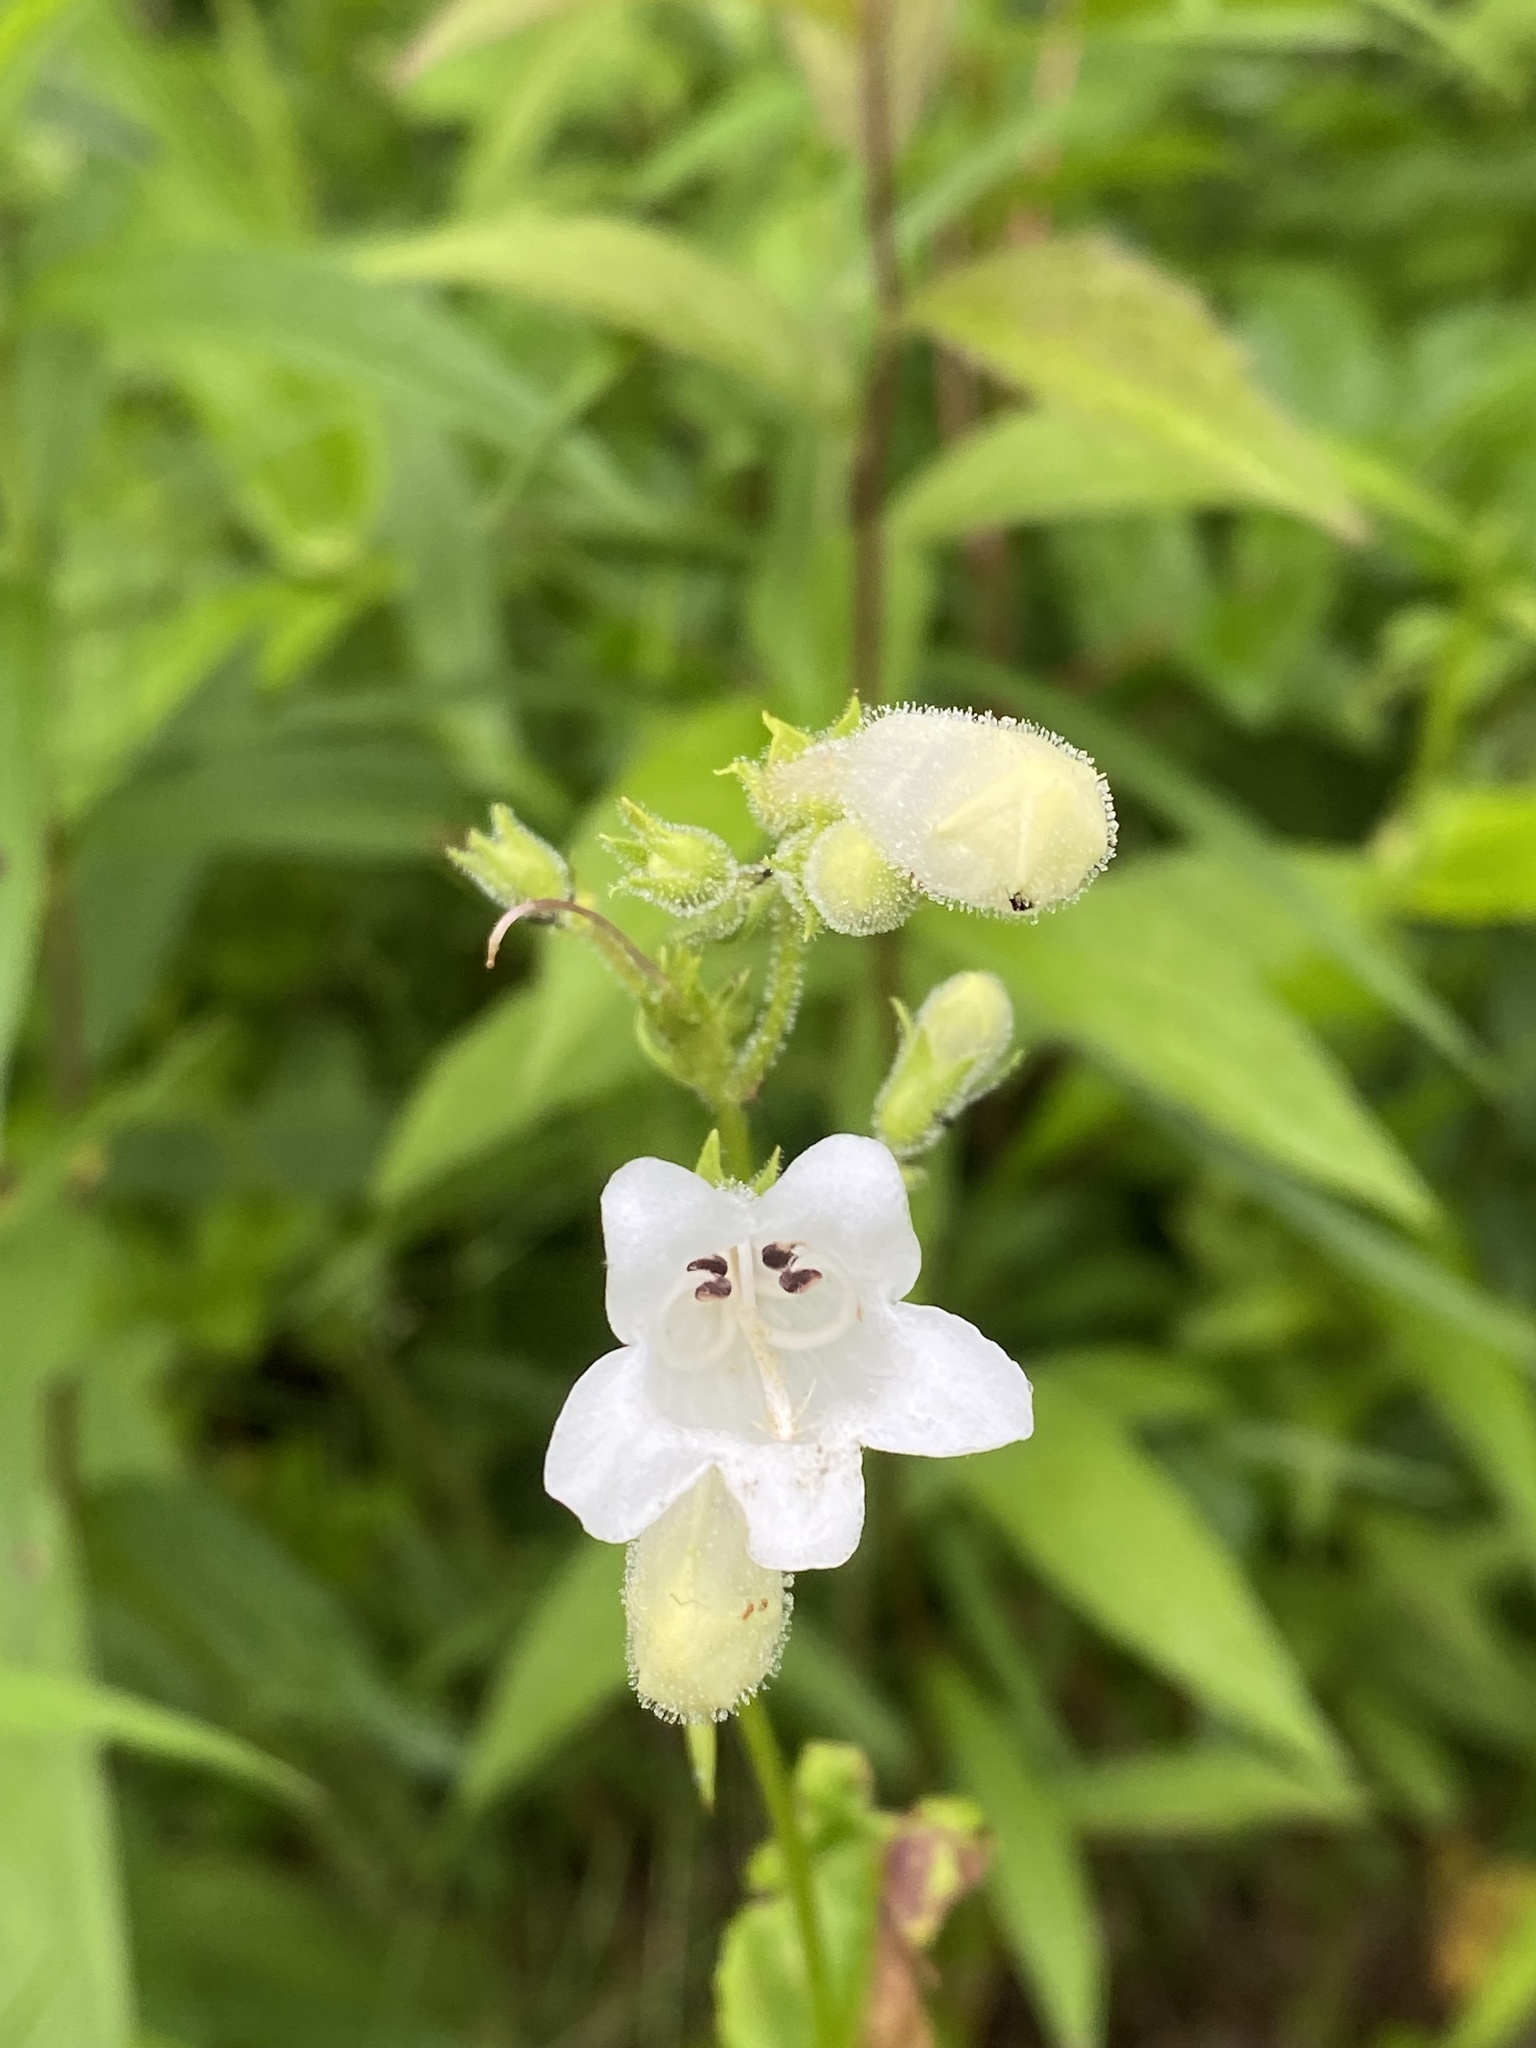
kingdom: Plantae
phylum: Tracheophyta
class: Magnoliopsida
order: Lamiales
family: Plantaginaceae
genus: Penstemon
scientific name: Penstemon digitalis
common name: Foxglove beardtongue
